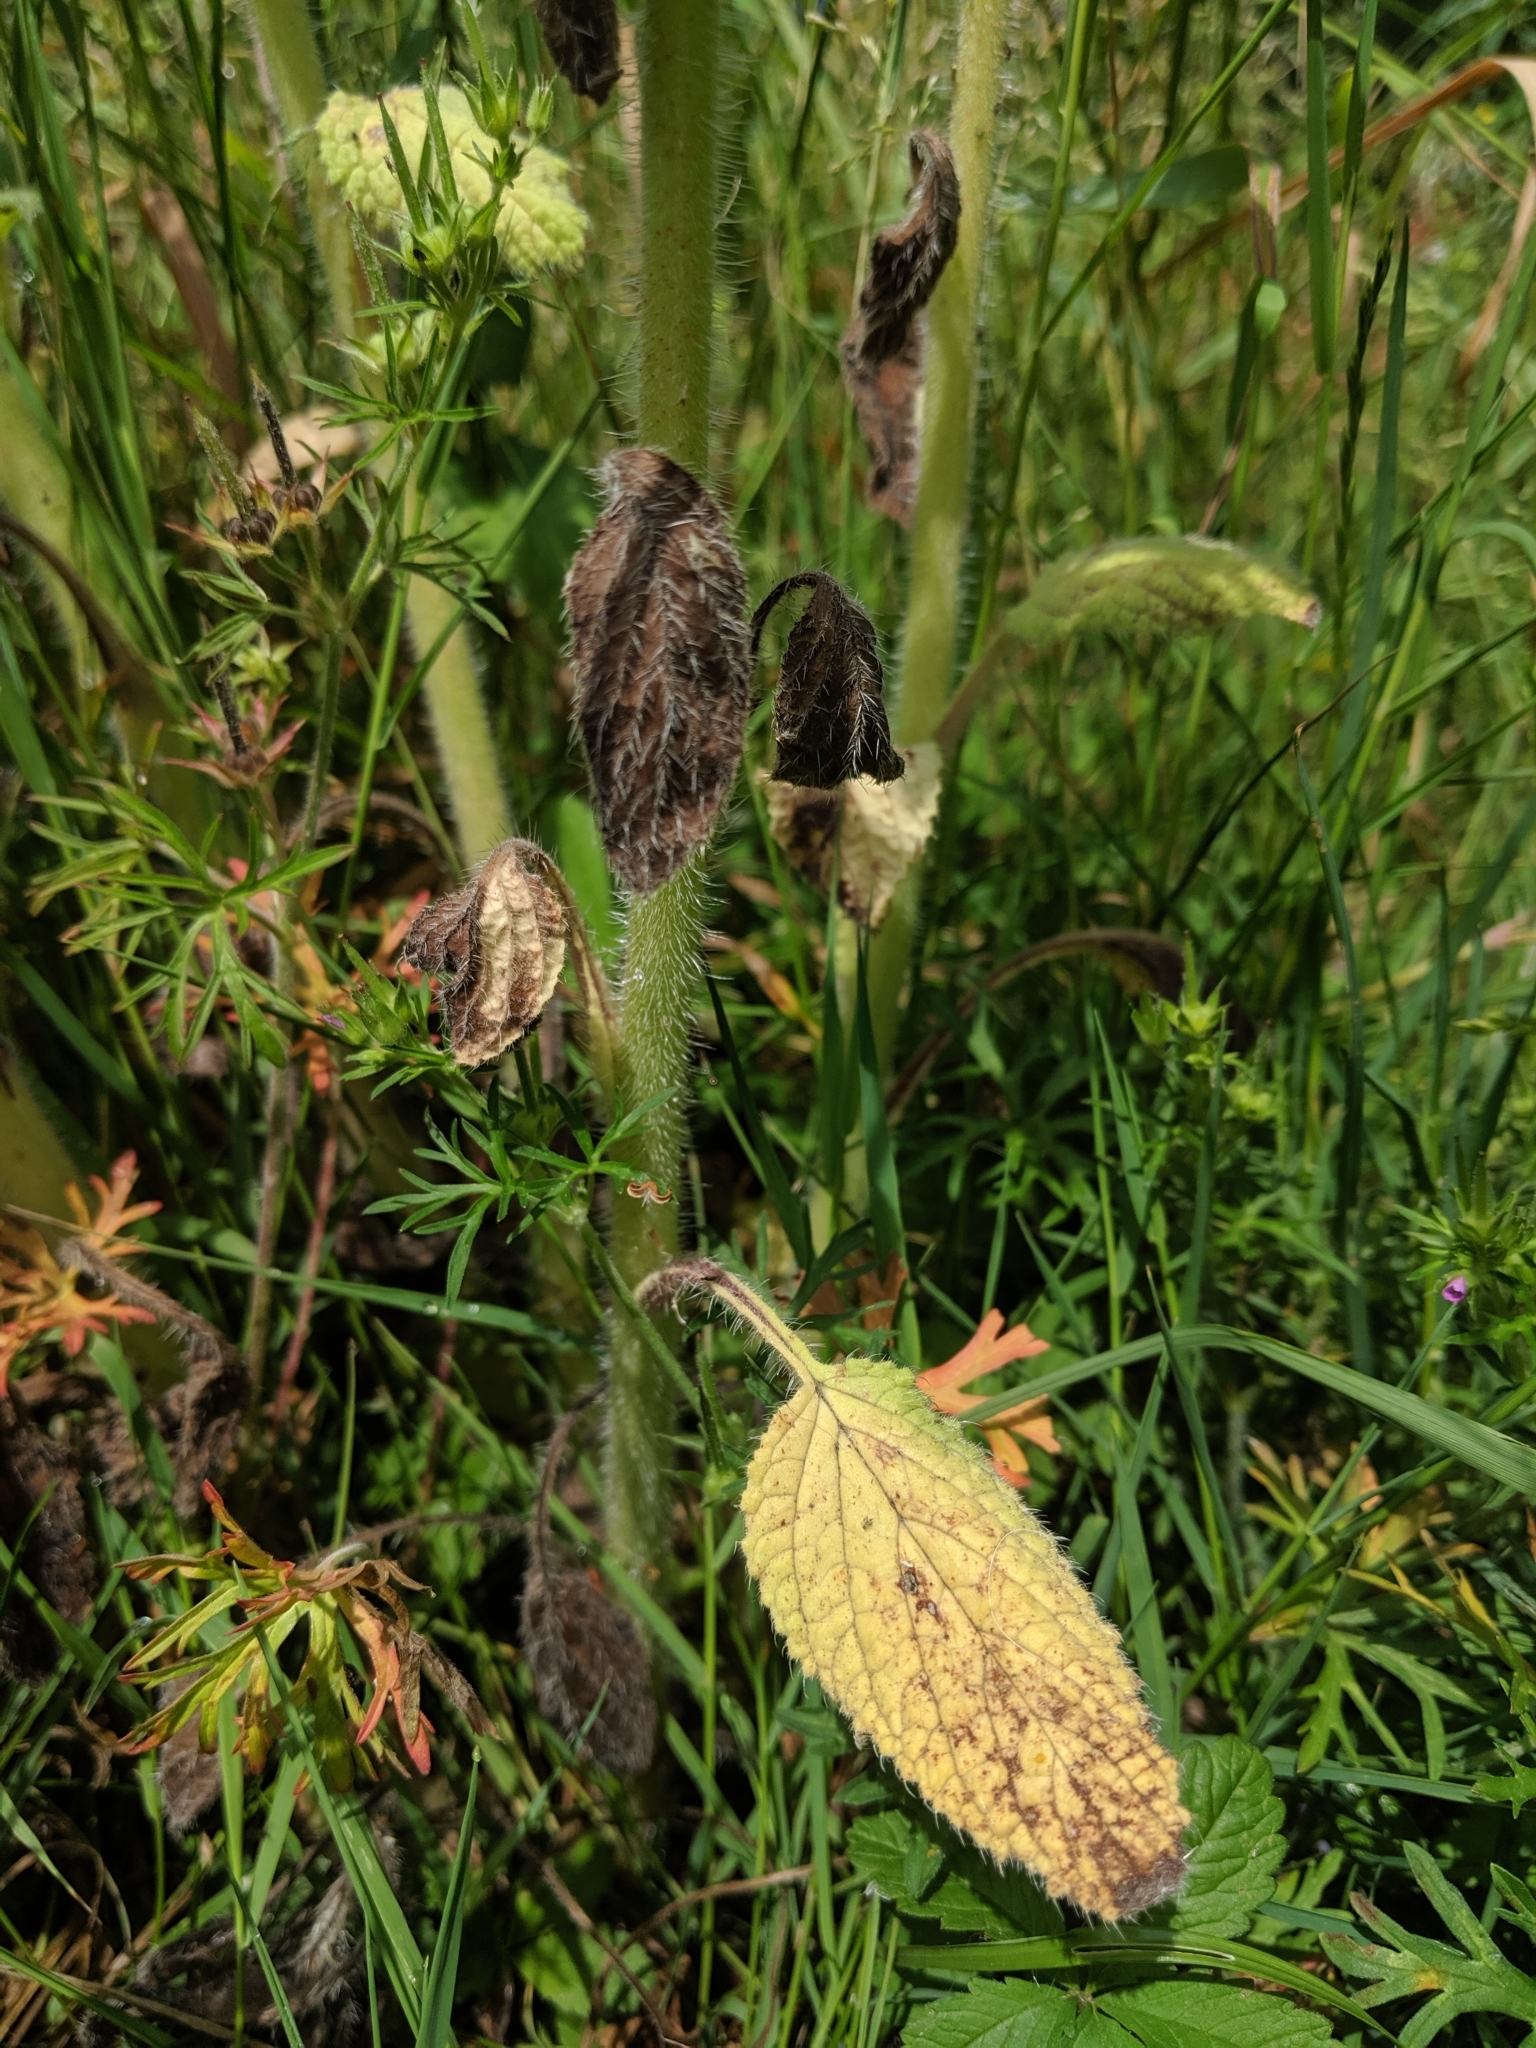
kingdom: Plantae
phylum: Tracheophyta
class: Magnoliopsida
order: Boraginales
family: Boraginaceae
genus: Borago
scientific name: Borago officinalis
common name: Borage
